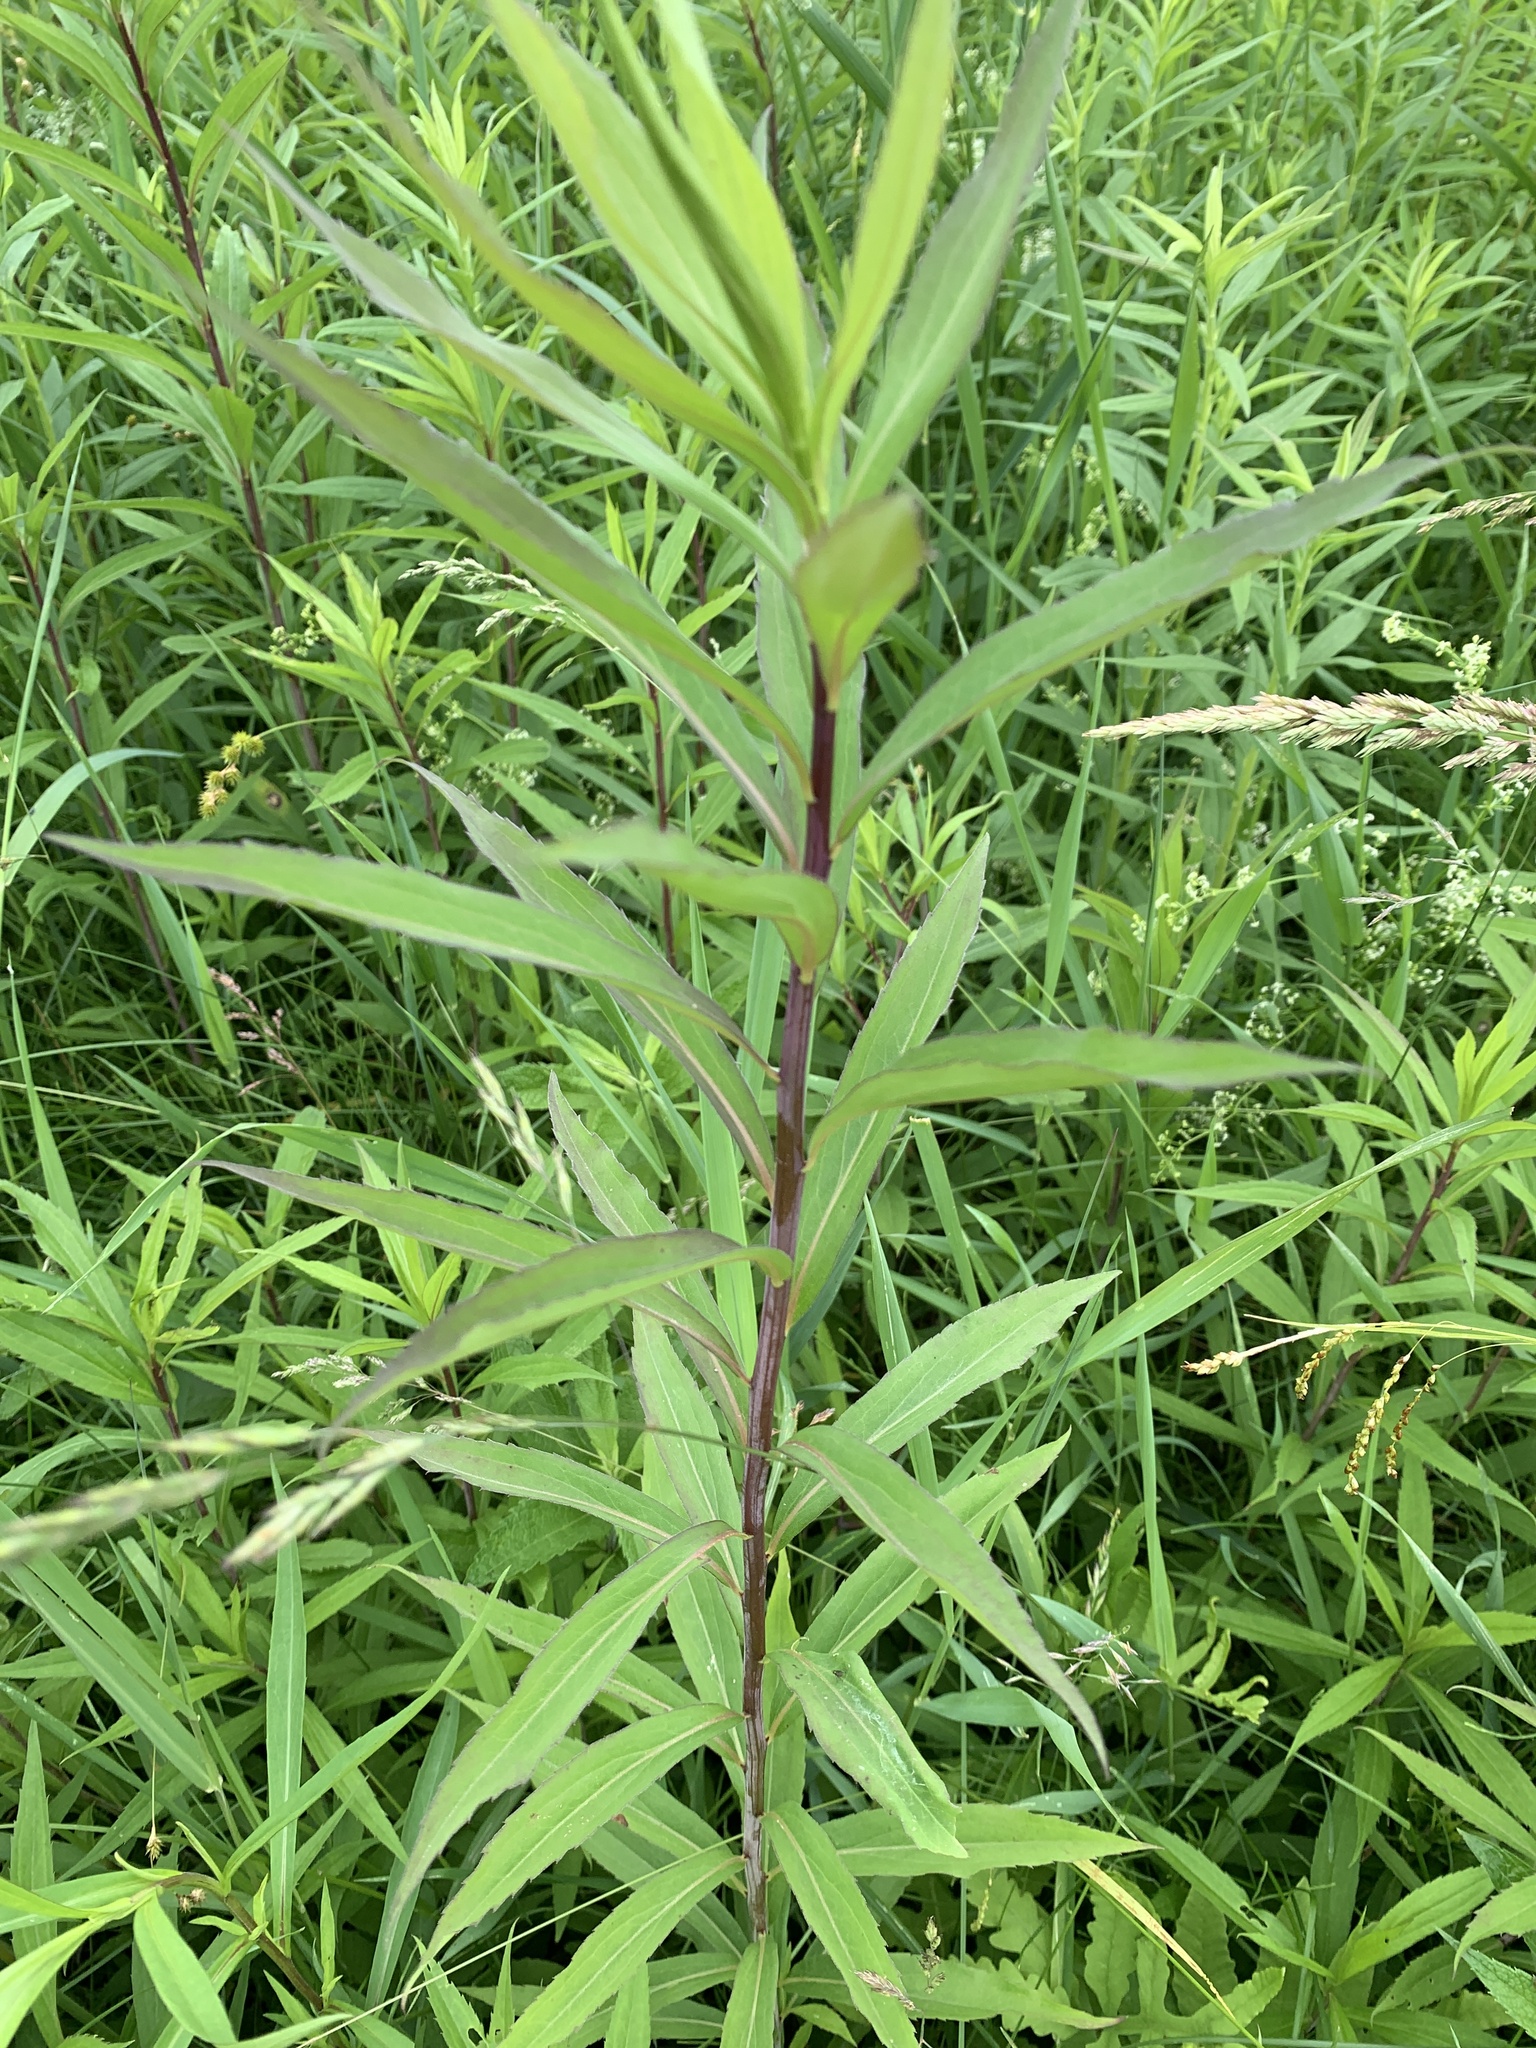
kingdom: Plantae
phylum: Tracheophyta
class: Magnoliopsida
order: Asterales
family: Asteraceae
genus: Solidago
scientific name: Solidago gigantea
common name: Giant goldenrod
